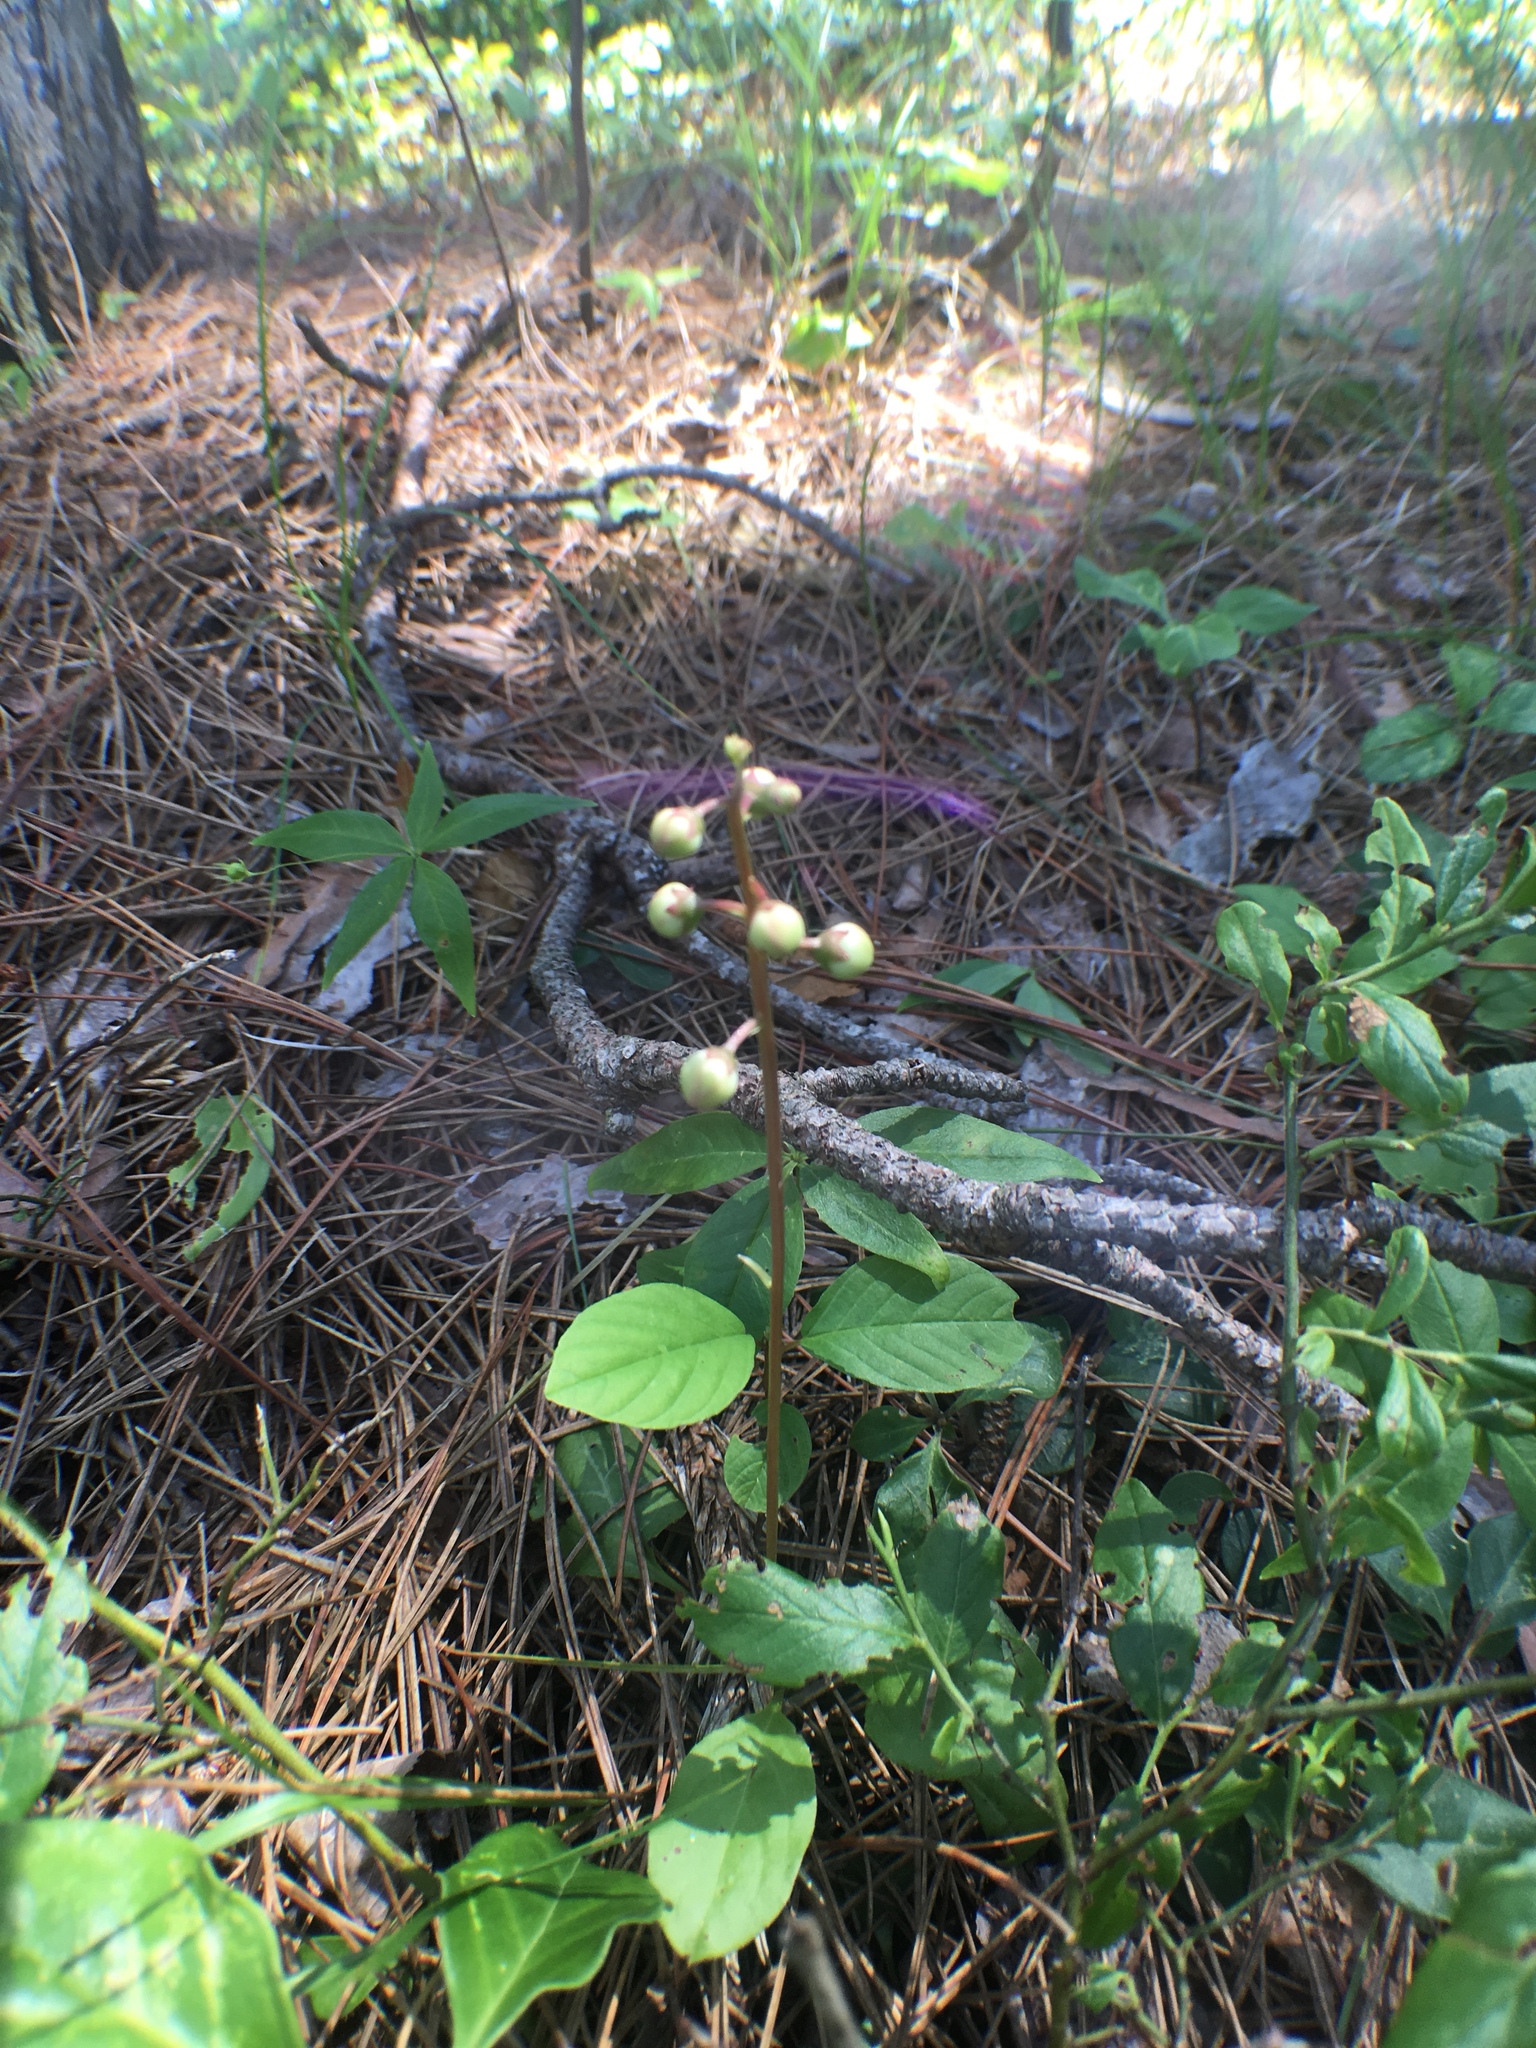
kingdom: Plantae
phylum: Tracheophyta
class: Magnoliopsida
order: Ericales
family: Ericaceae
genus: Pyrola
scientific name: Pyrola elliptica
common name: Shinleaf
